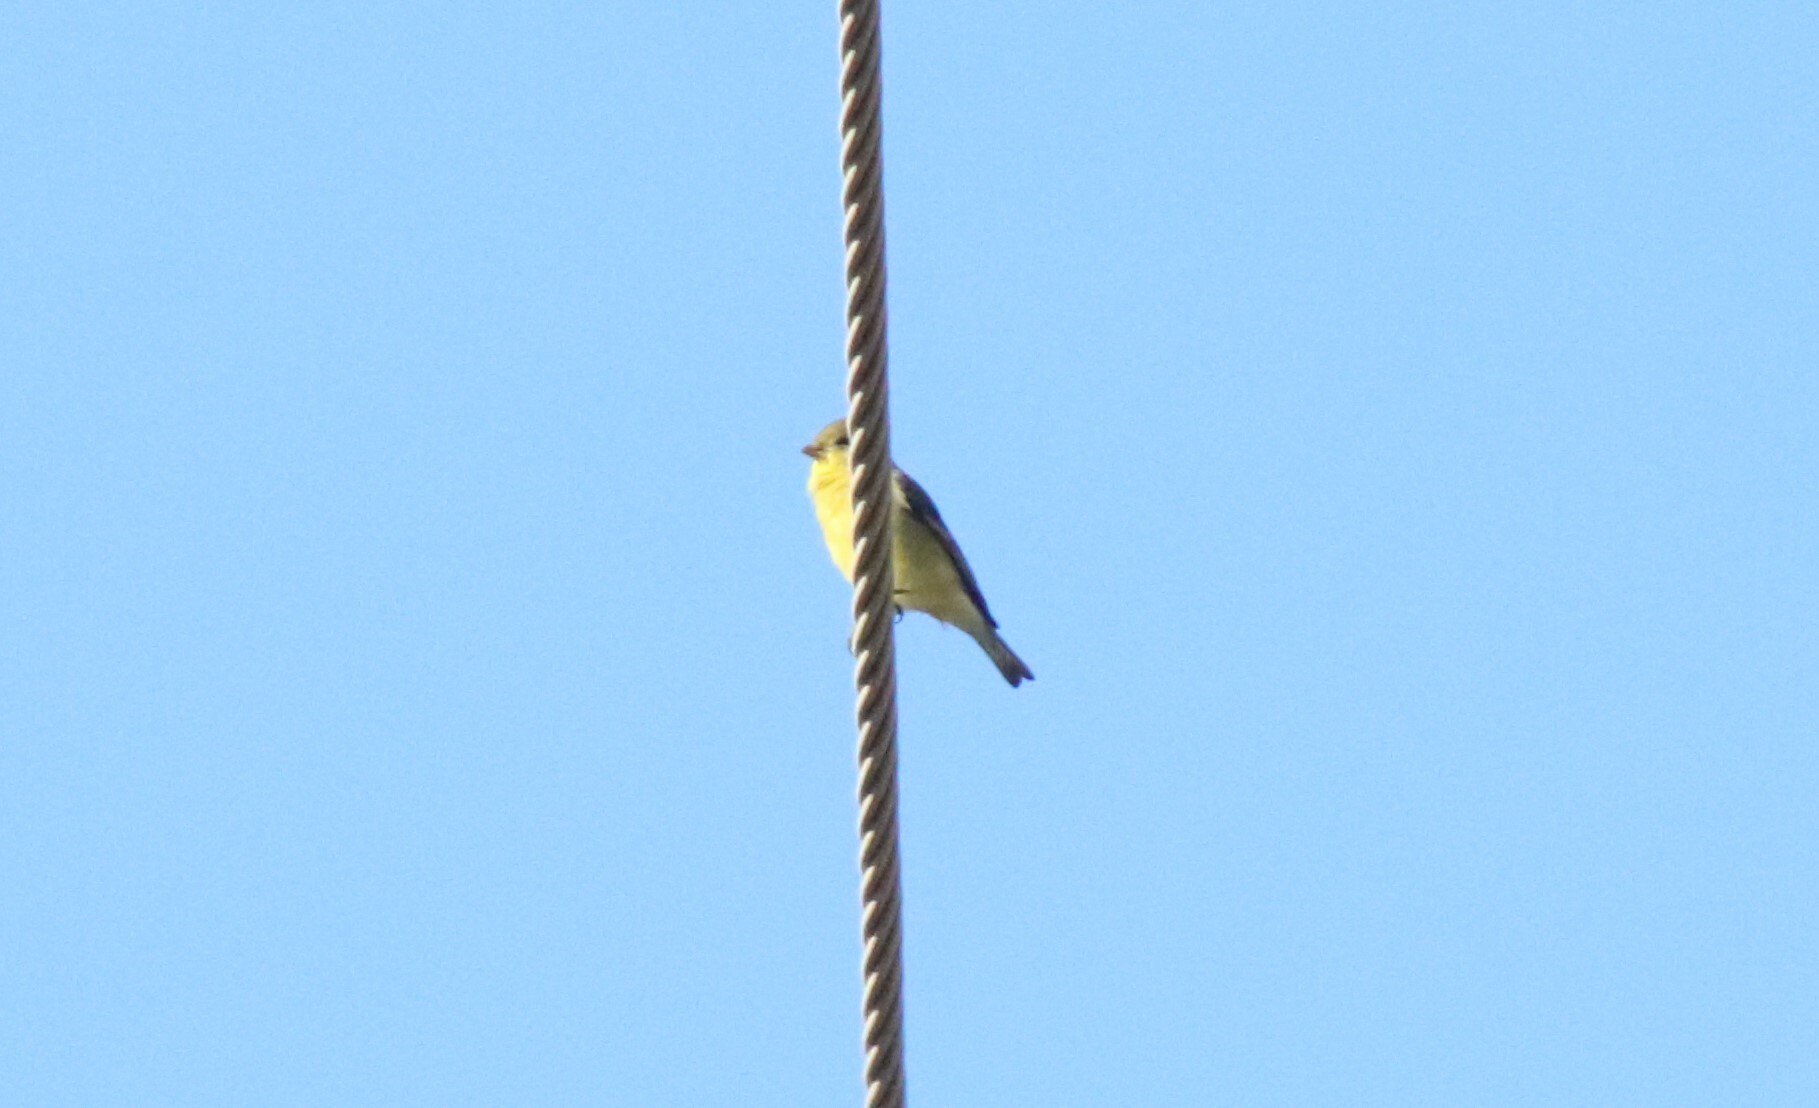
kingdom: Animalia
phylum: Chordata
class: Aves
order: Passeriformes
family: Fringillidae
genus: Spinus
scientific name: Spinus psaltria
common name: Lesser goldfinch
